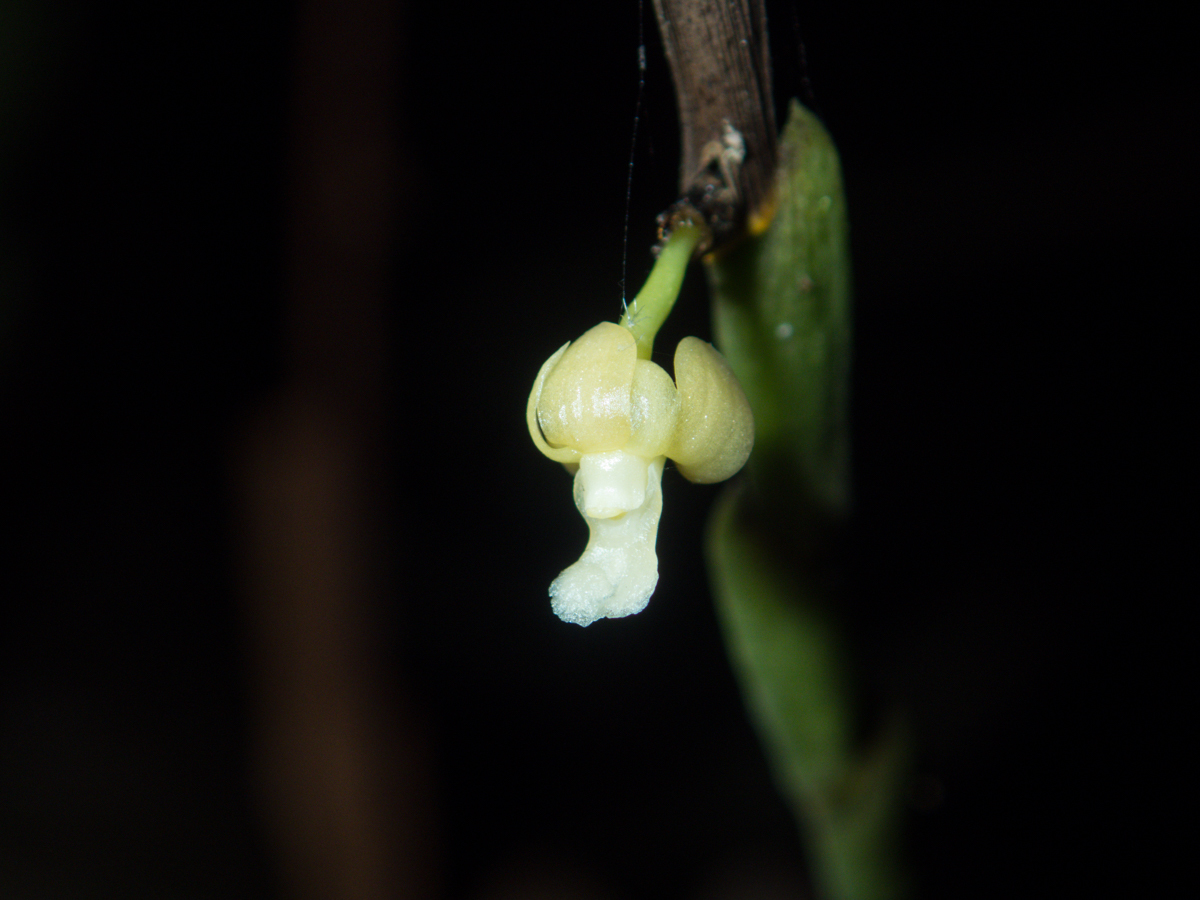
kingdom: Plantae
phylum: Tracheophyta
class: Liliopsida
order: Asparagales
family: Orchidaceae
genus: Dendrobium
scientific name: Dendrobium aloifolium
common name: Aloe-like dendrobium
